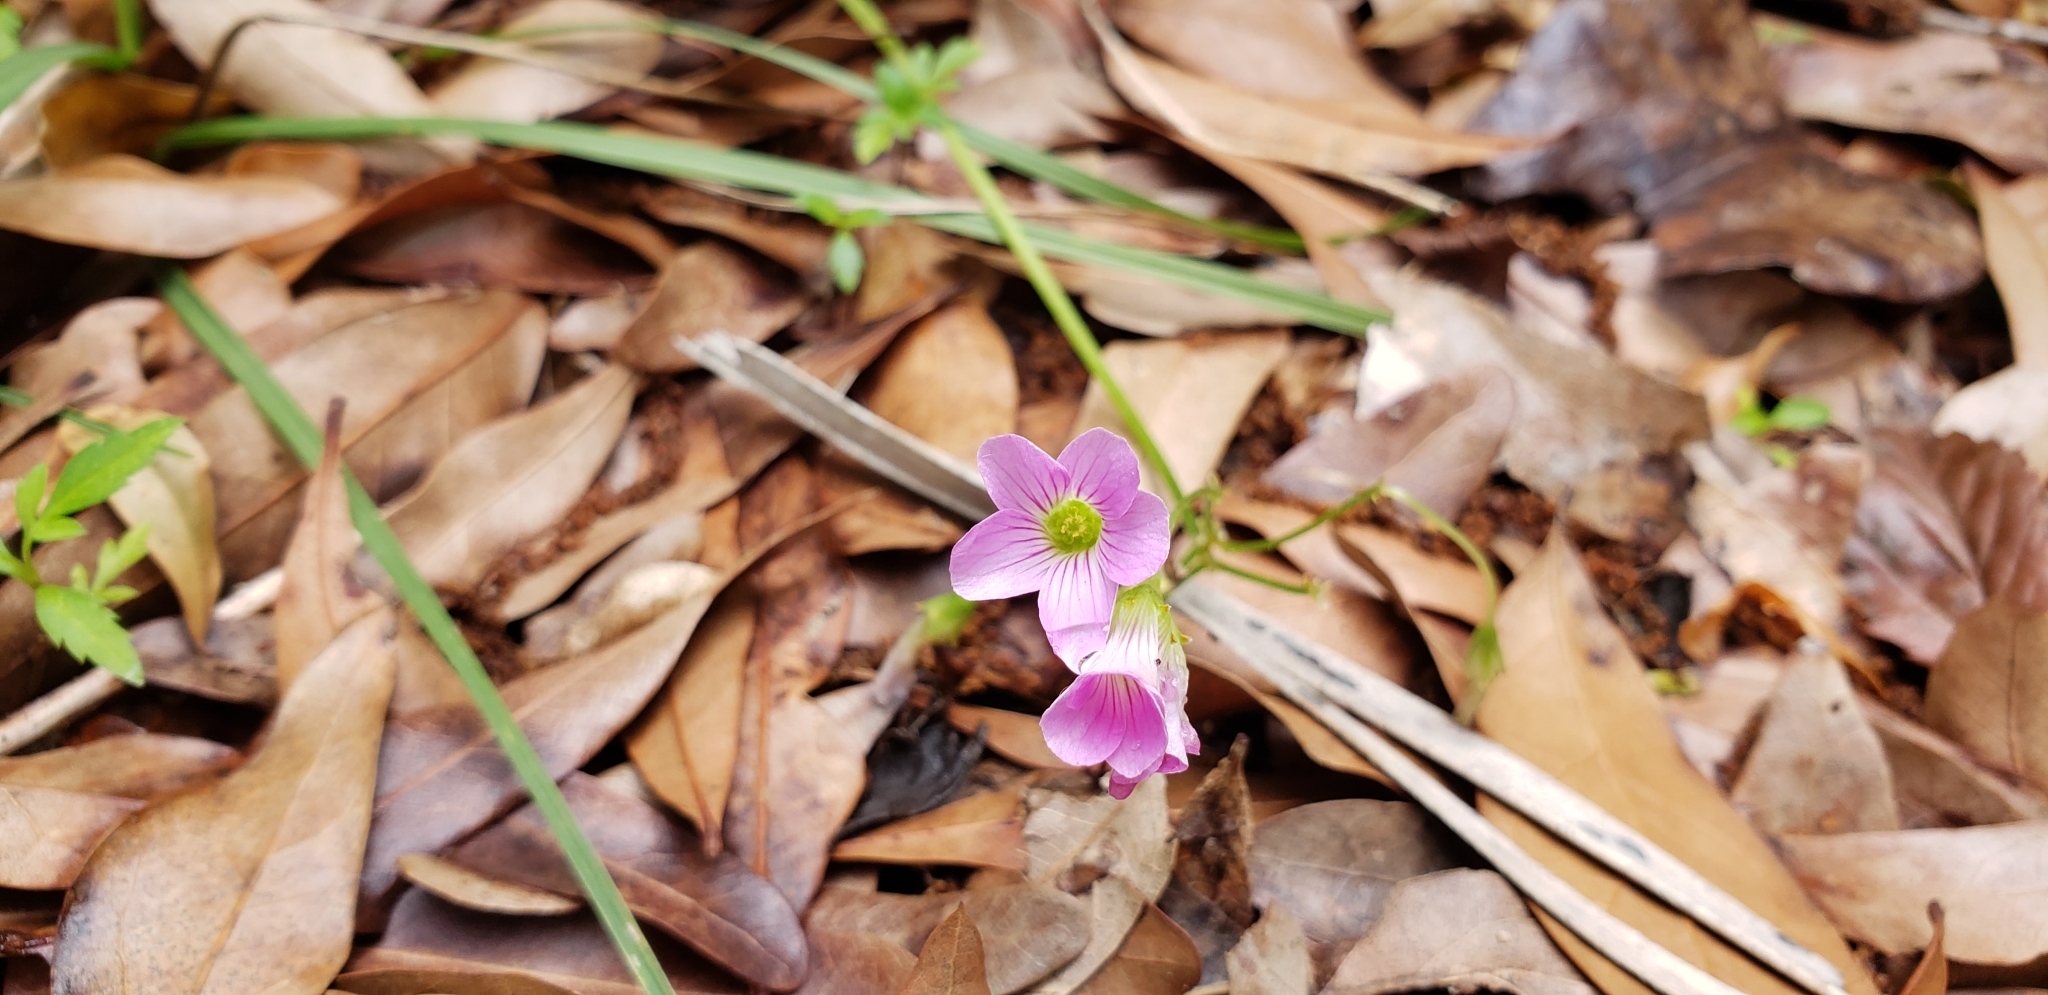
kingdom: Plantae
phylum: Tracheophyta
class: Magnoliopsida
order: Oxalidales
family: Oxalidaceae
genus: Oxalis
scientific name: Oxalis debilis
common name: Large-flowered pink-sorrel
